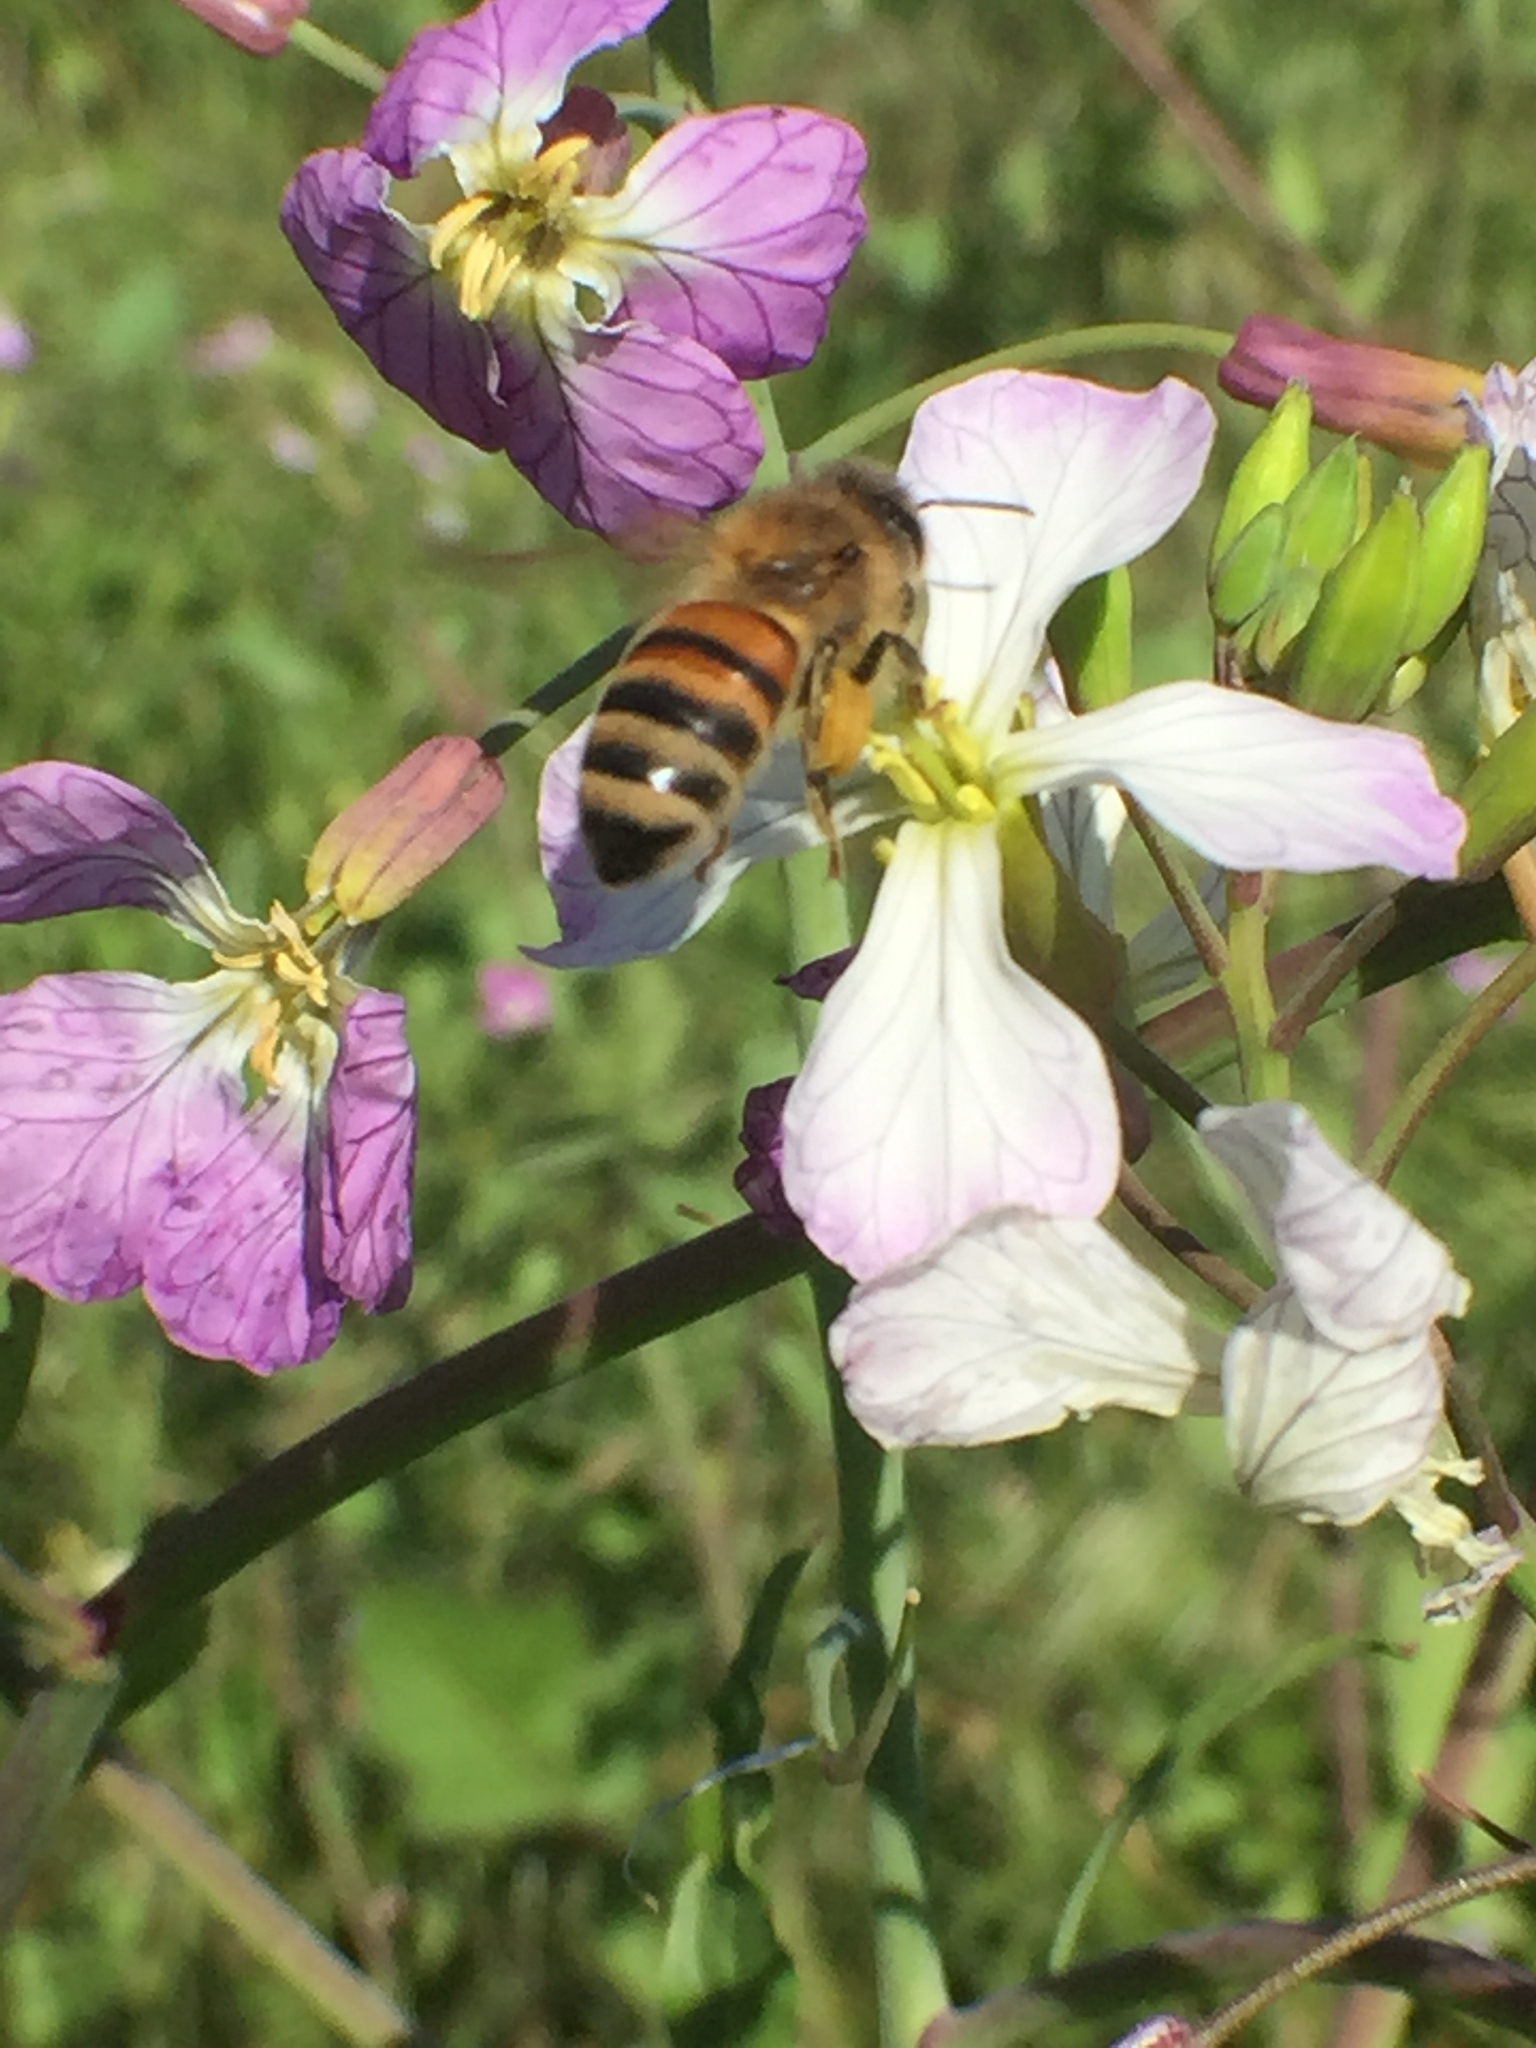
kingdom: Animalia
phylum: Arthropoda
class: Insecta
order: Hymenoptera
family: Apidae
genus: Apis
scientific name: Apis mellifera
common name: Honey bee
